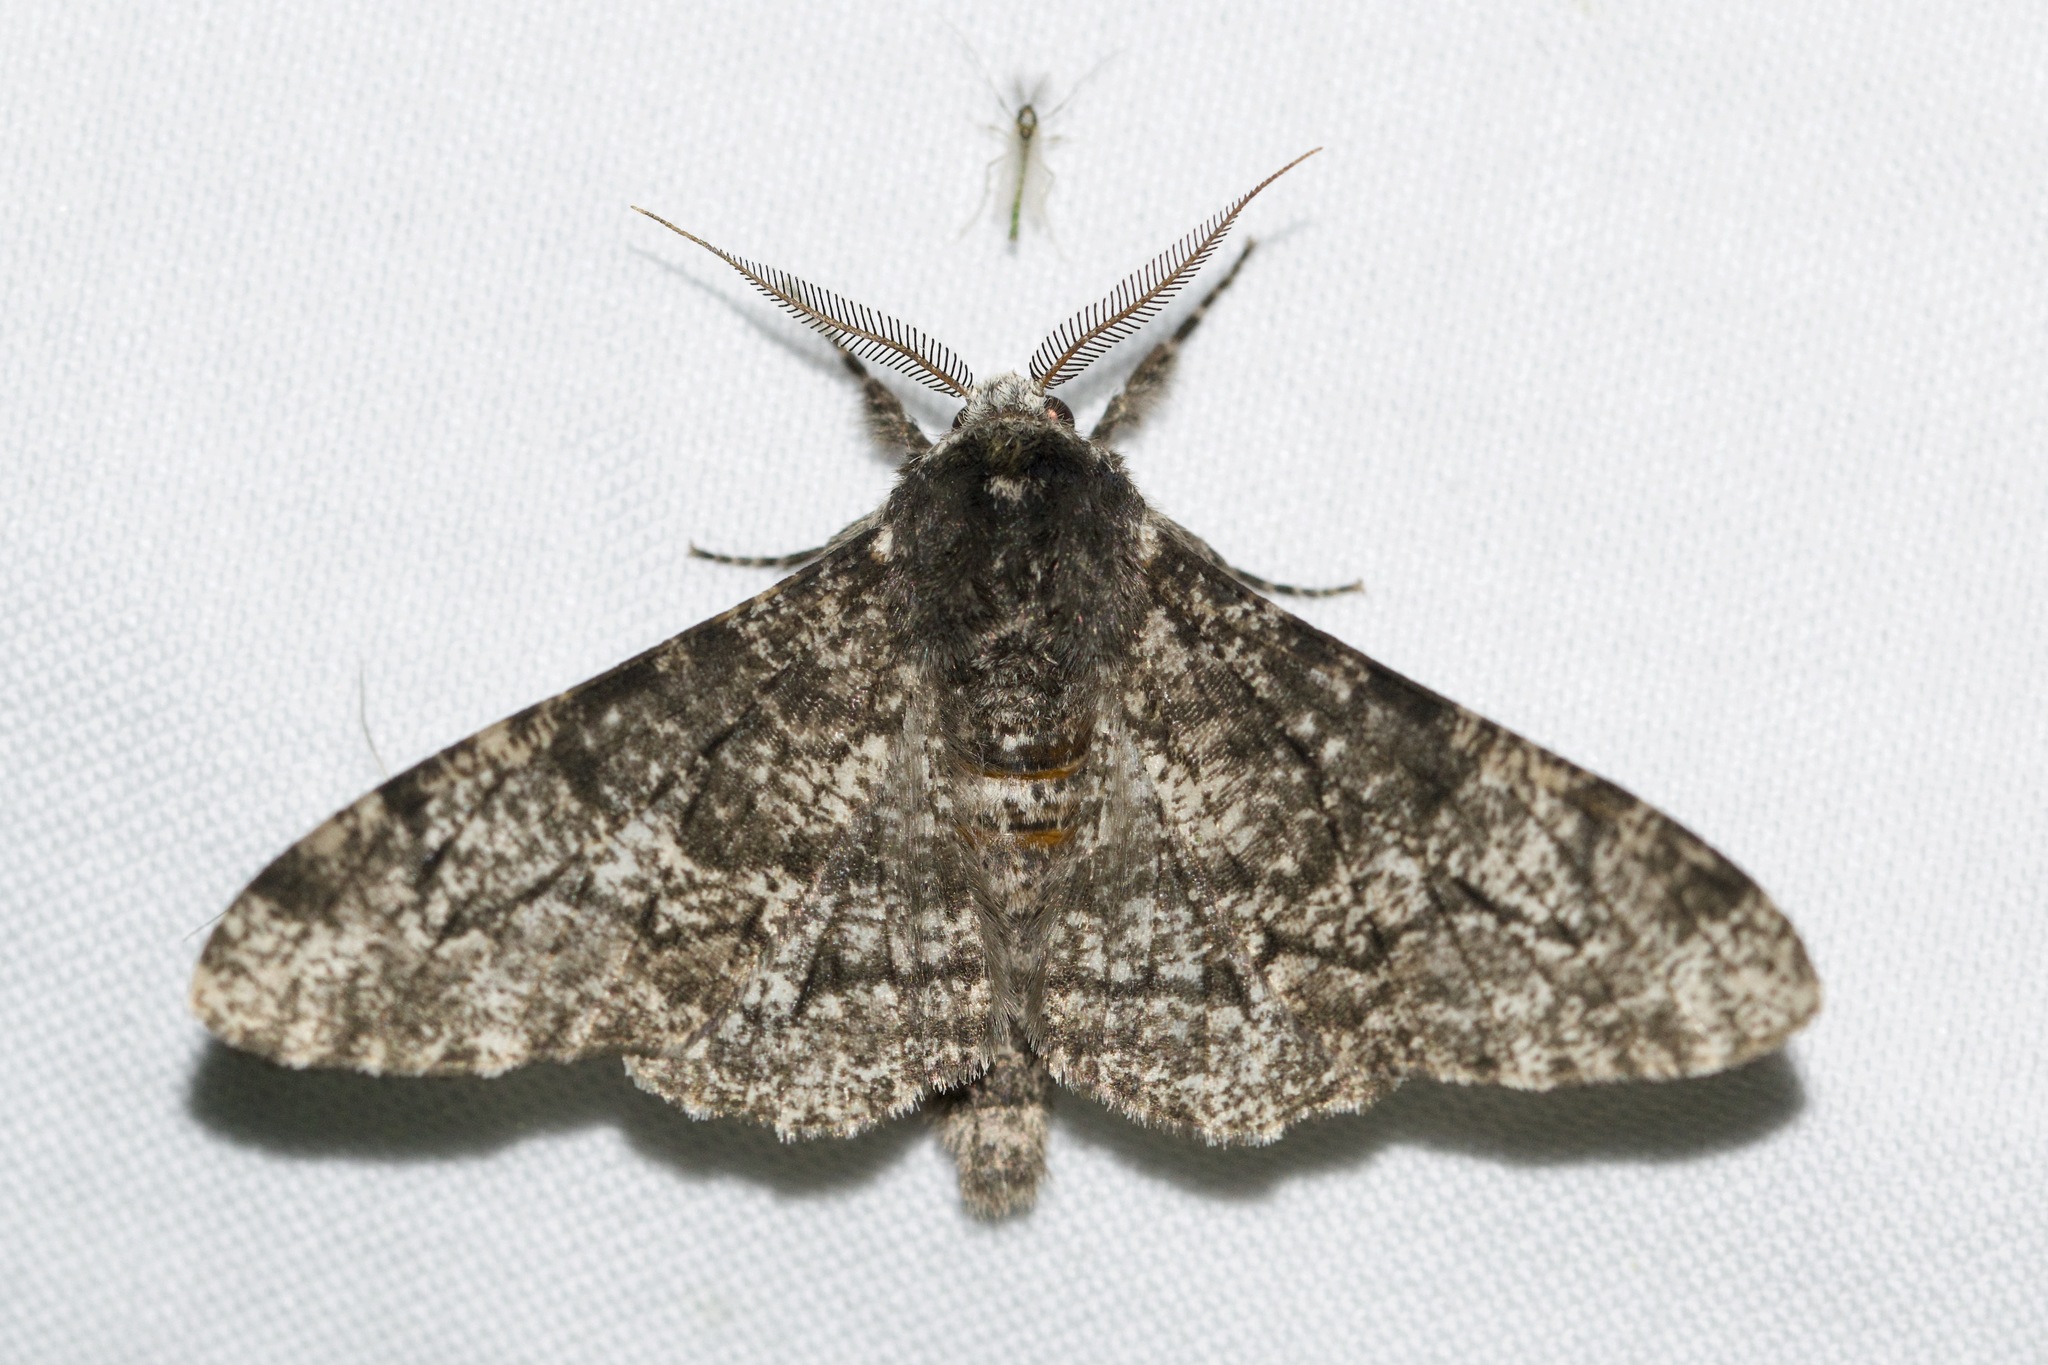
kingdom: Animalia
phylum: Arthropoda
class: Insecta
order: Lepidoptera
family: Geometridae
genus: Biston
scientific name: Biston betularia
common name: Peppered moth
